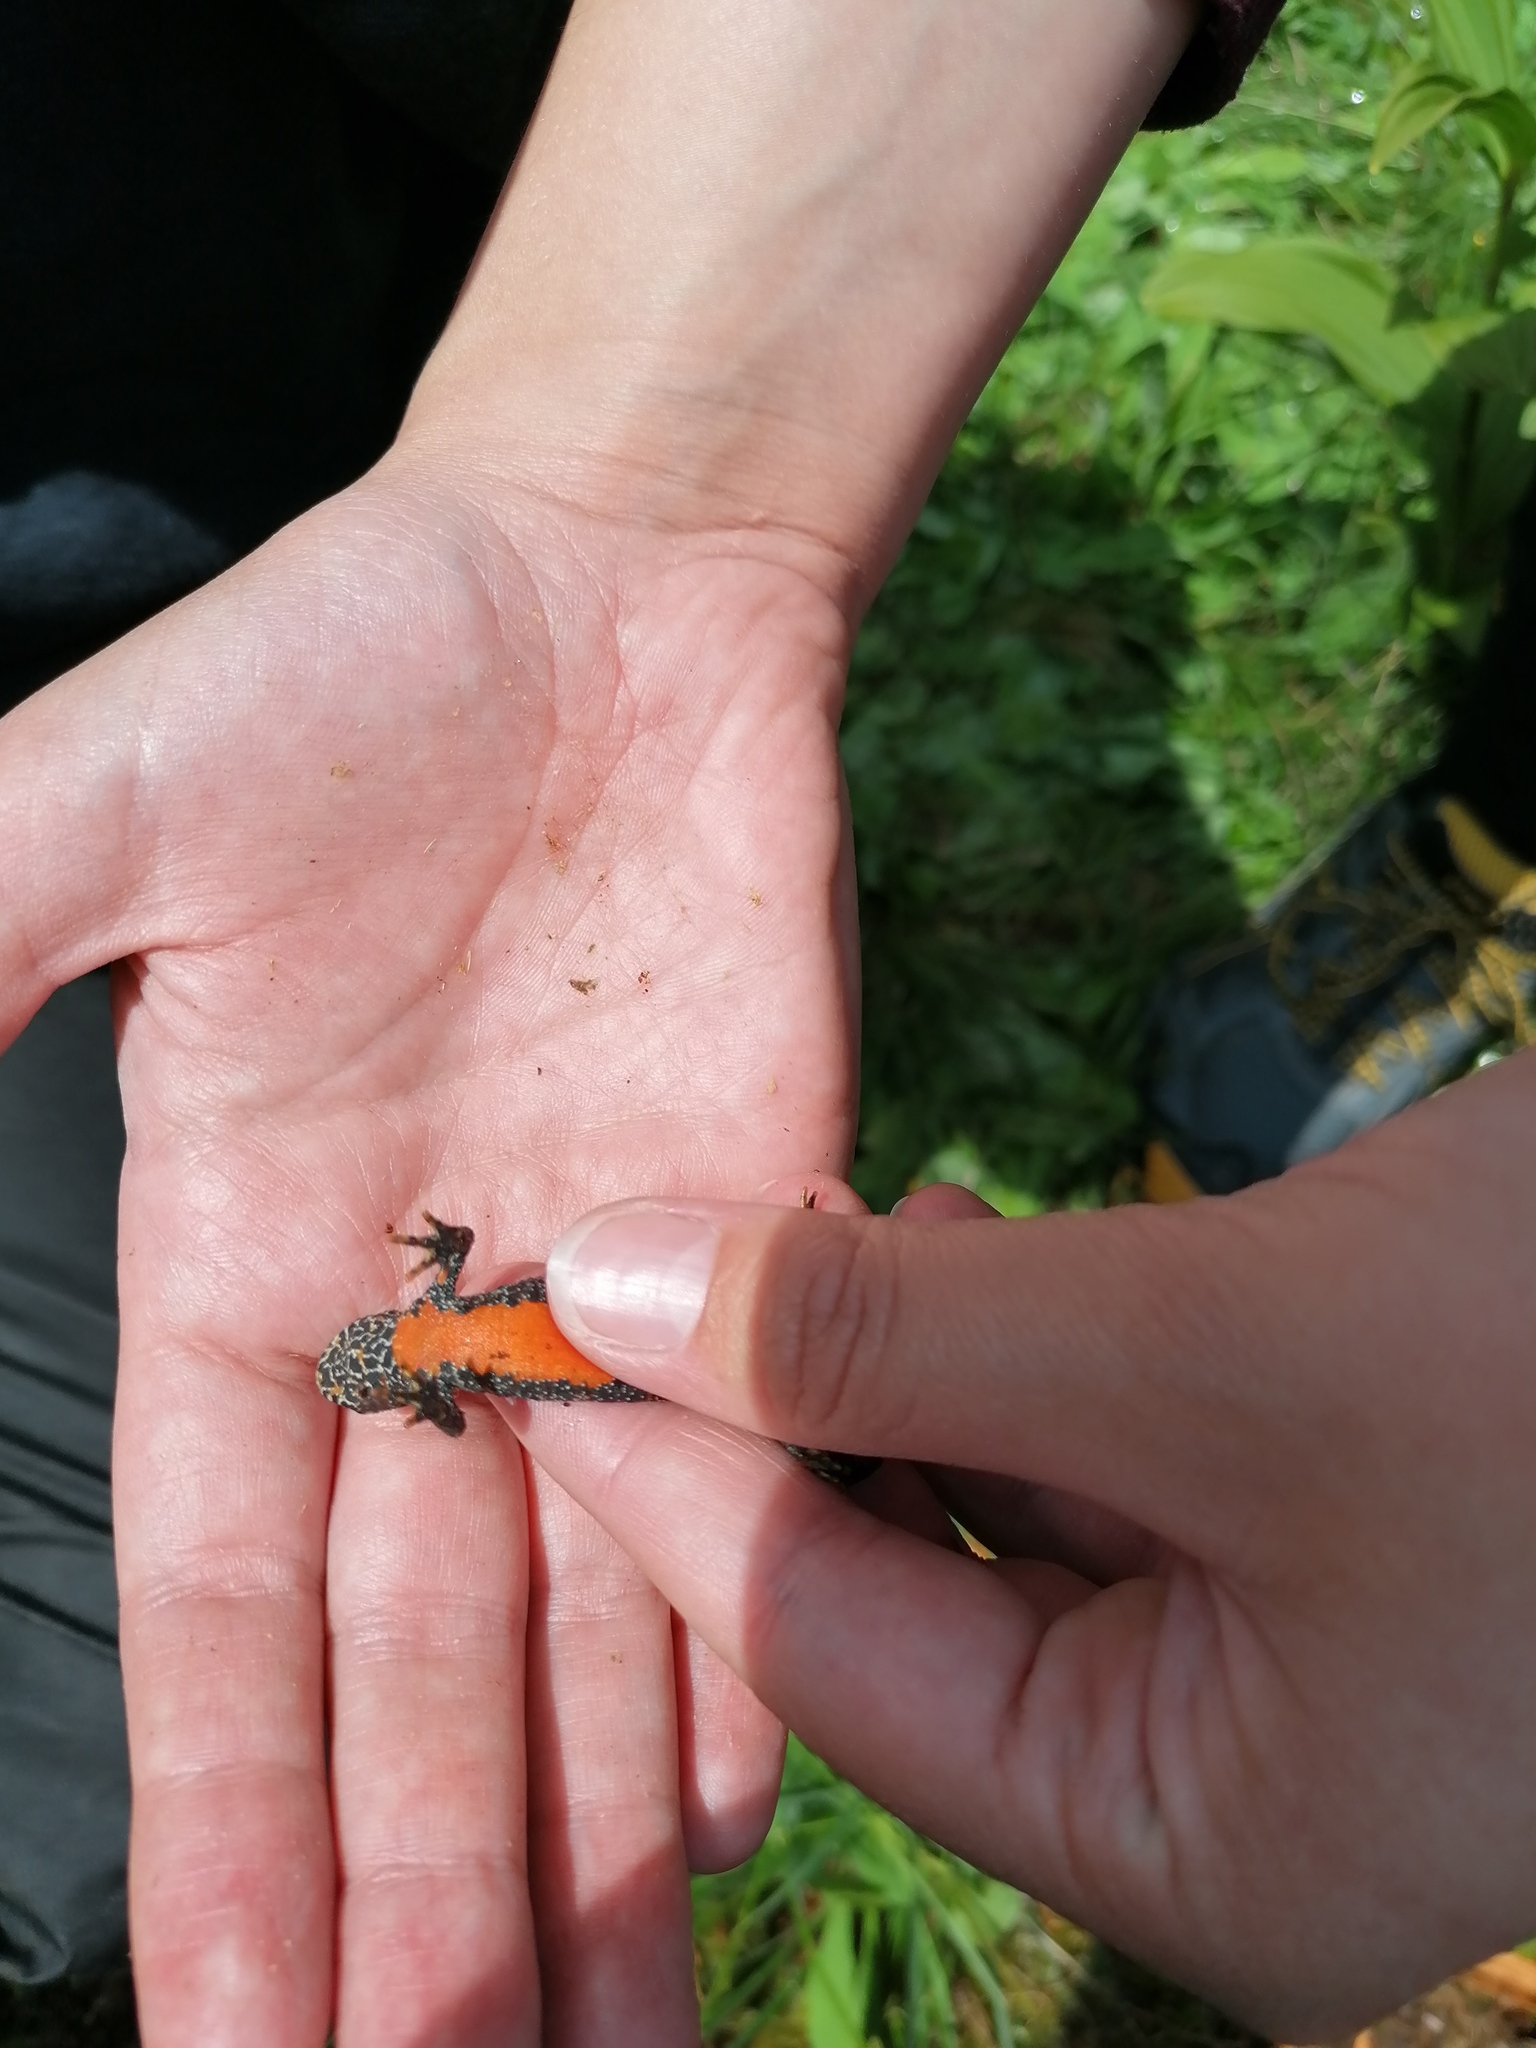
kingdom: Animalia
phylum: Chordata
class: Amphibia
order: Caudata
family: Salamandridae
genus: Ichthyosaura
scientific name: Ichthyosaura alpestris
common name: Alpine newt
